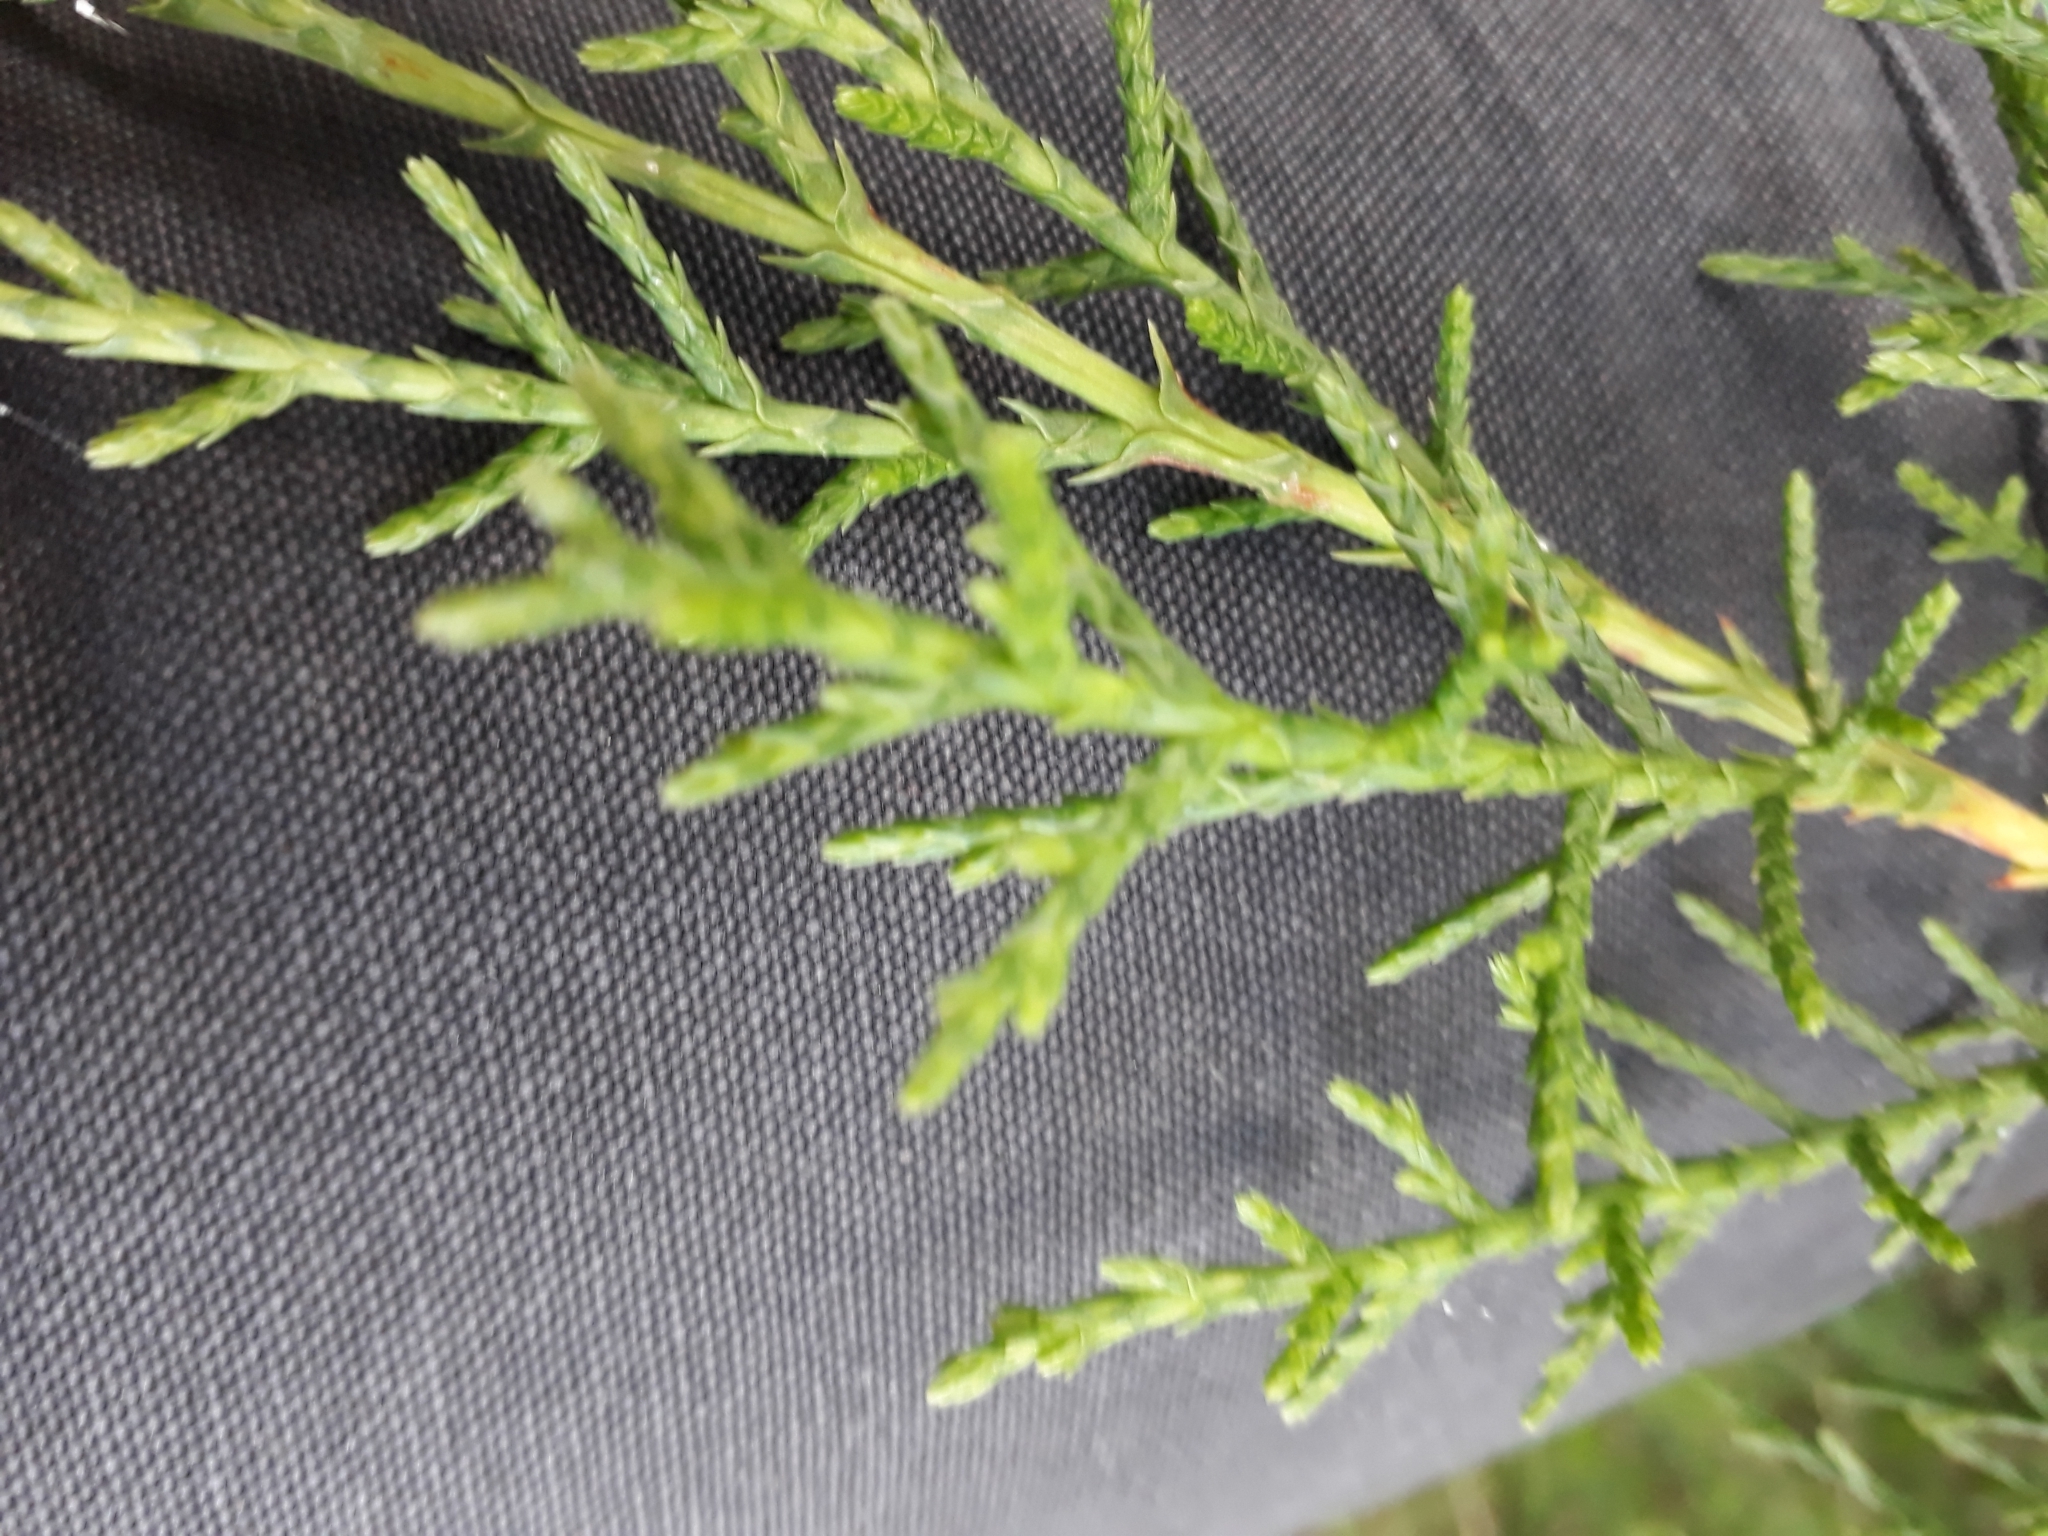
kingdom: Plantae
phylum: Tracheophyta
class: Pinopsida
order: Pinales
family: Cupressaceae
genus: Cupressus
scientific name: Cupressus macrocarpa
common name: Monterey cypress
